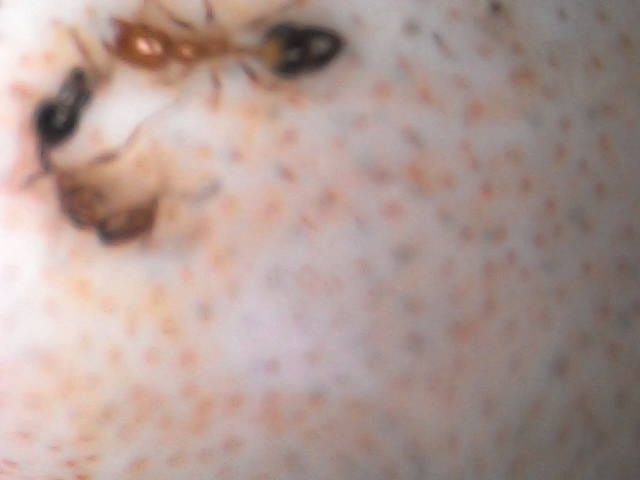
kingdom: Animalia
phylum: Arthropoda
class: Insecta
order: Hymenoptera
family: Formicidae
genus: Monomorium
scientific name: Monomorium destructor
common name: Destructive trailing ant
